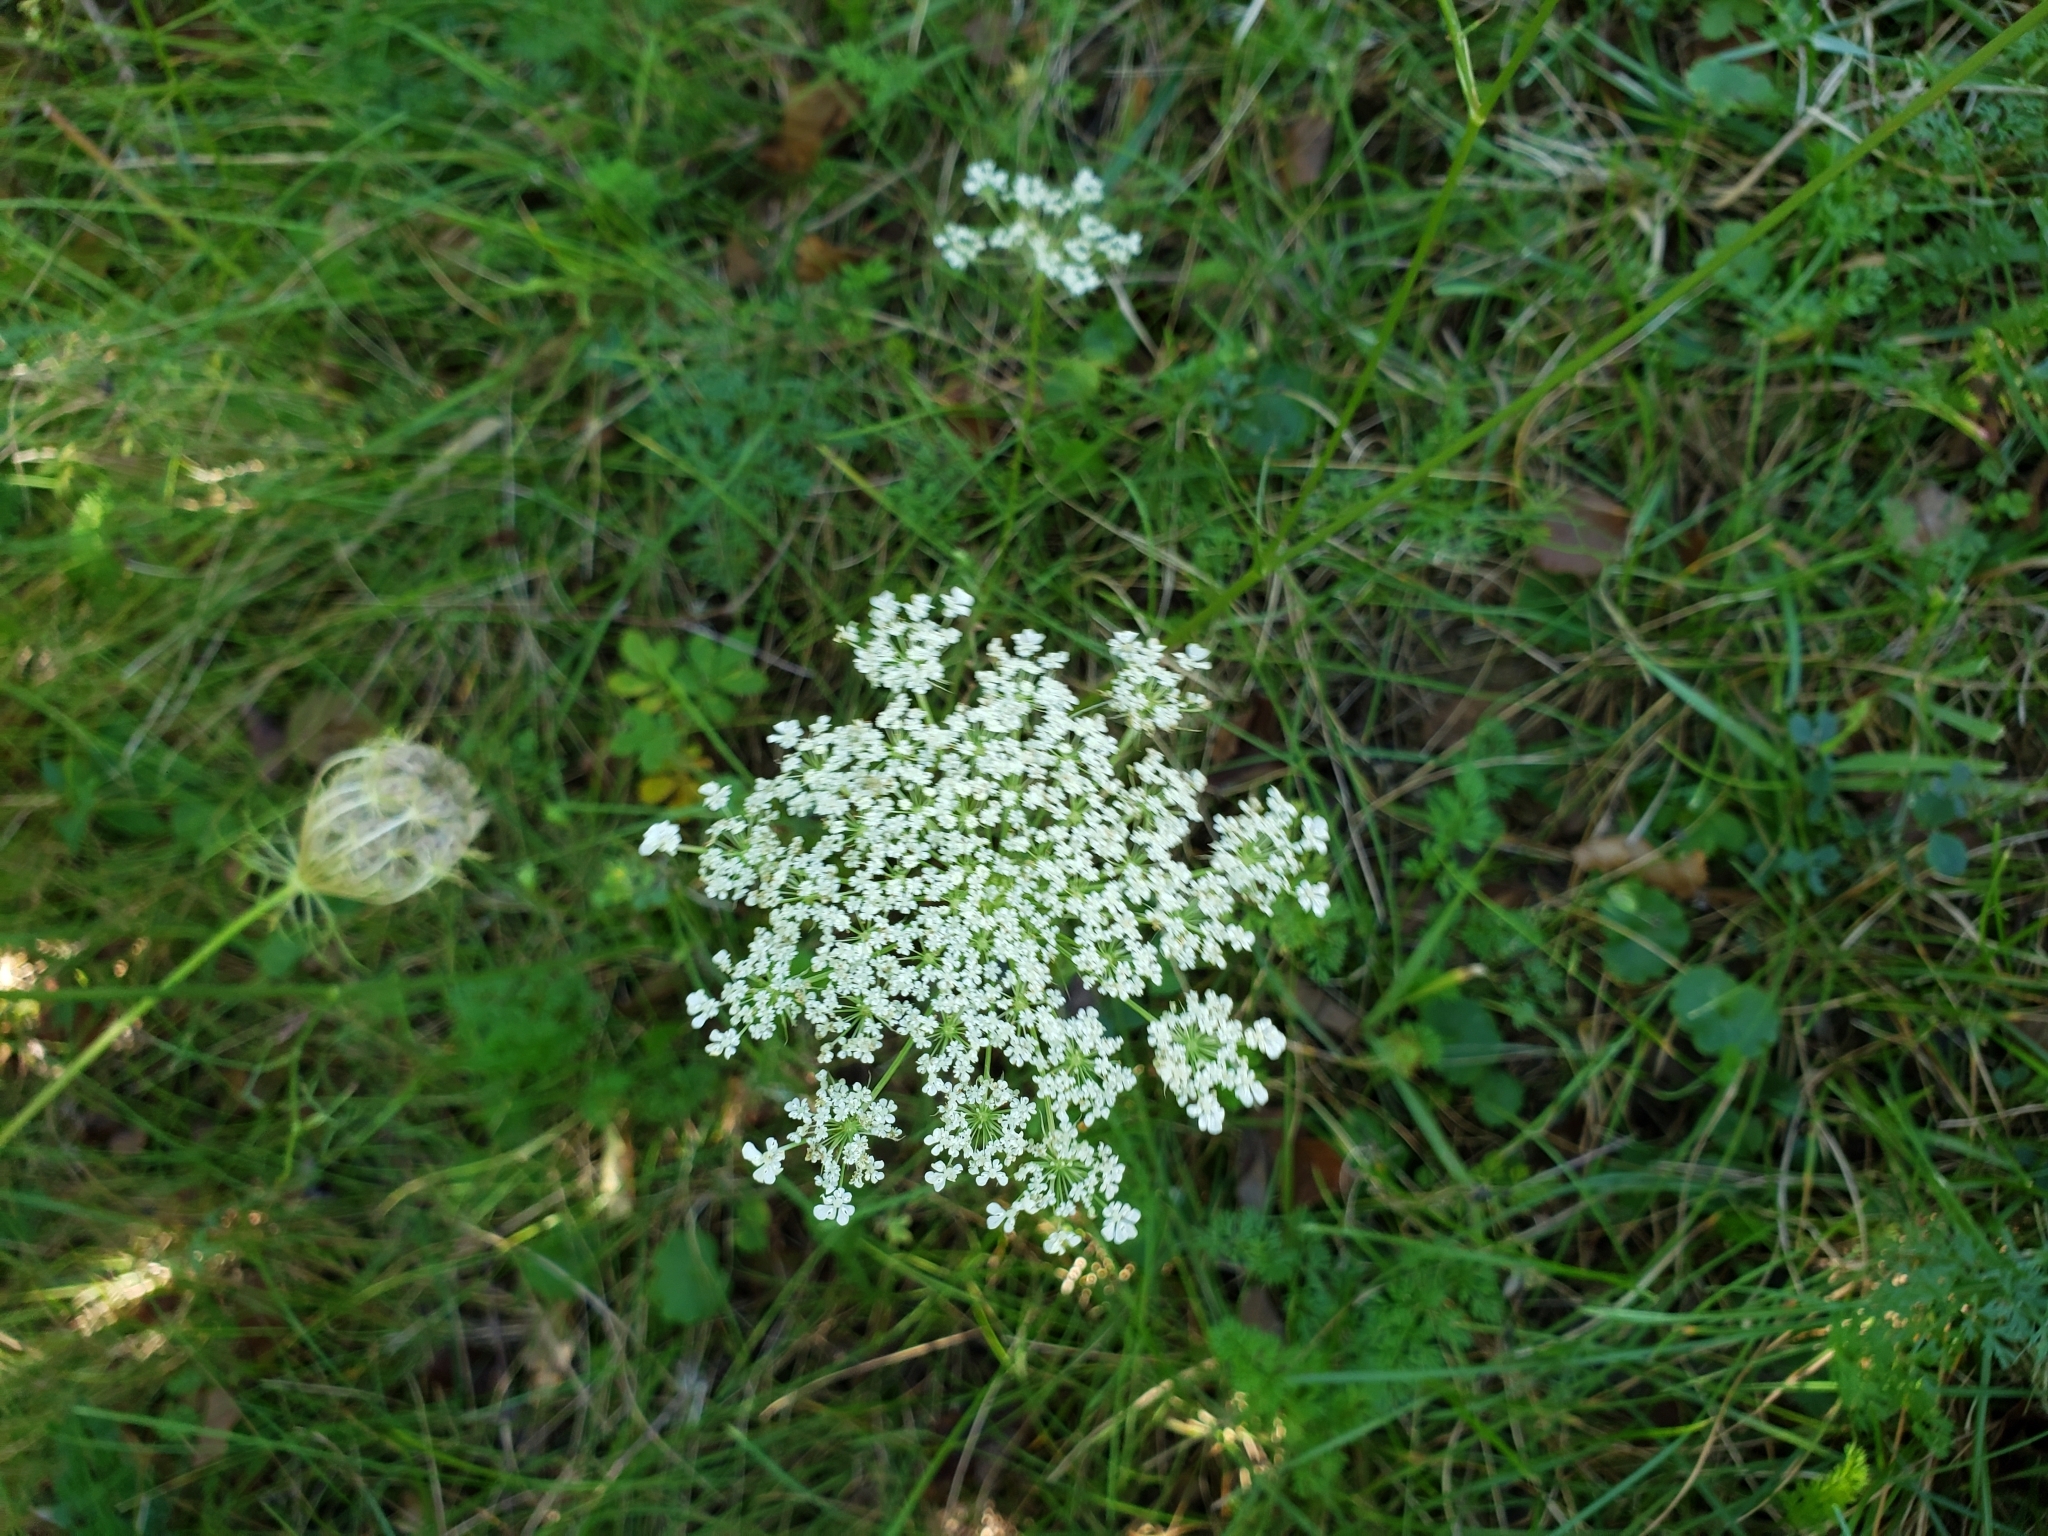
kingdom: Plantae
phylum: Tracheophyta
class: Magnoliopsida
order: Apiales
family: Apiaceae
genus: Daucus
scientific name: Daucus carota
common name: Wild carrot
